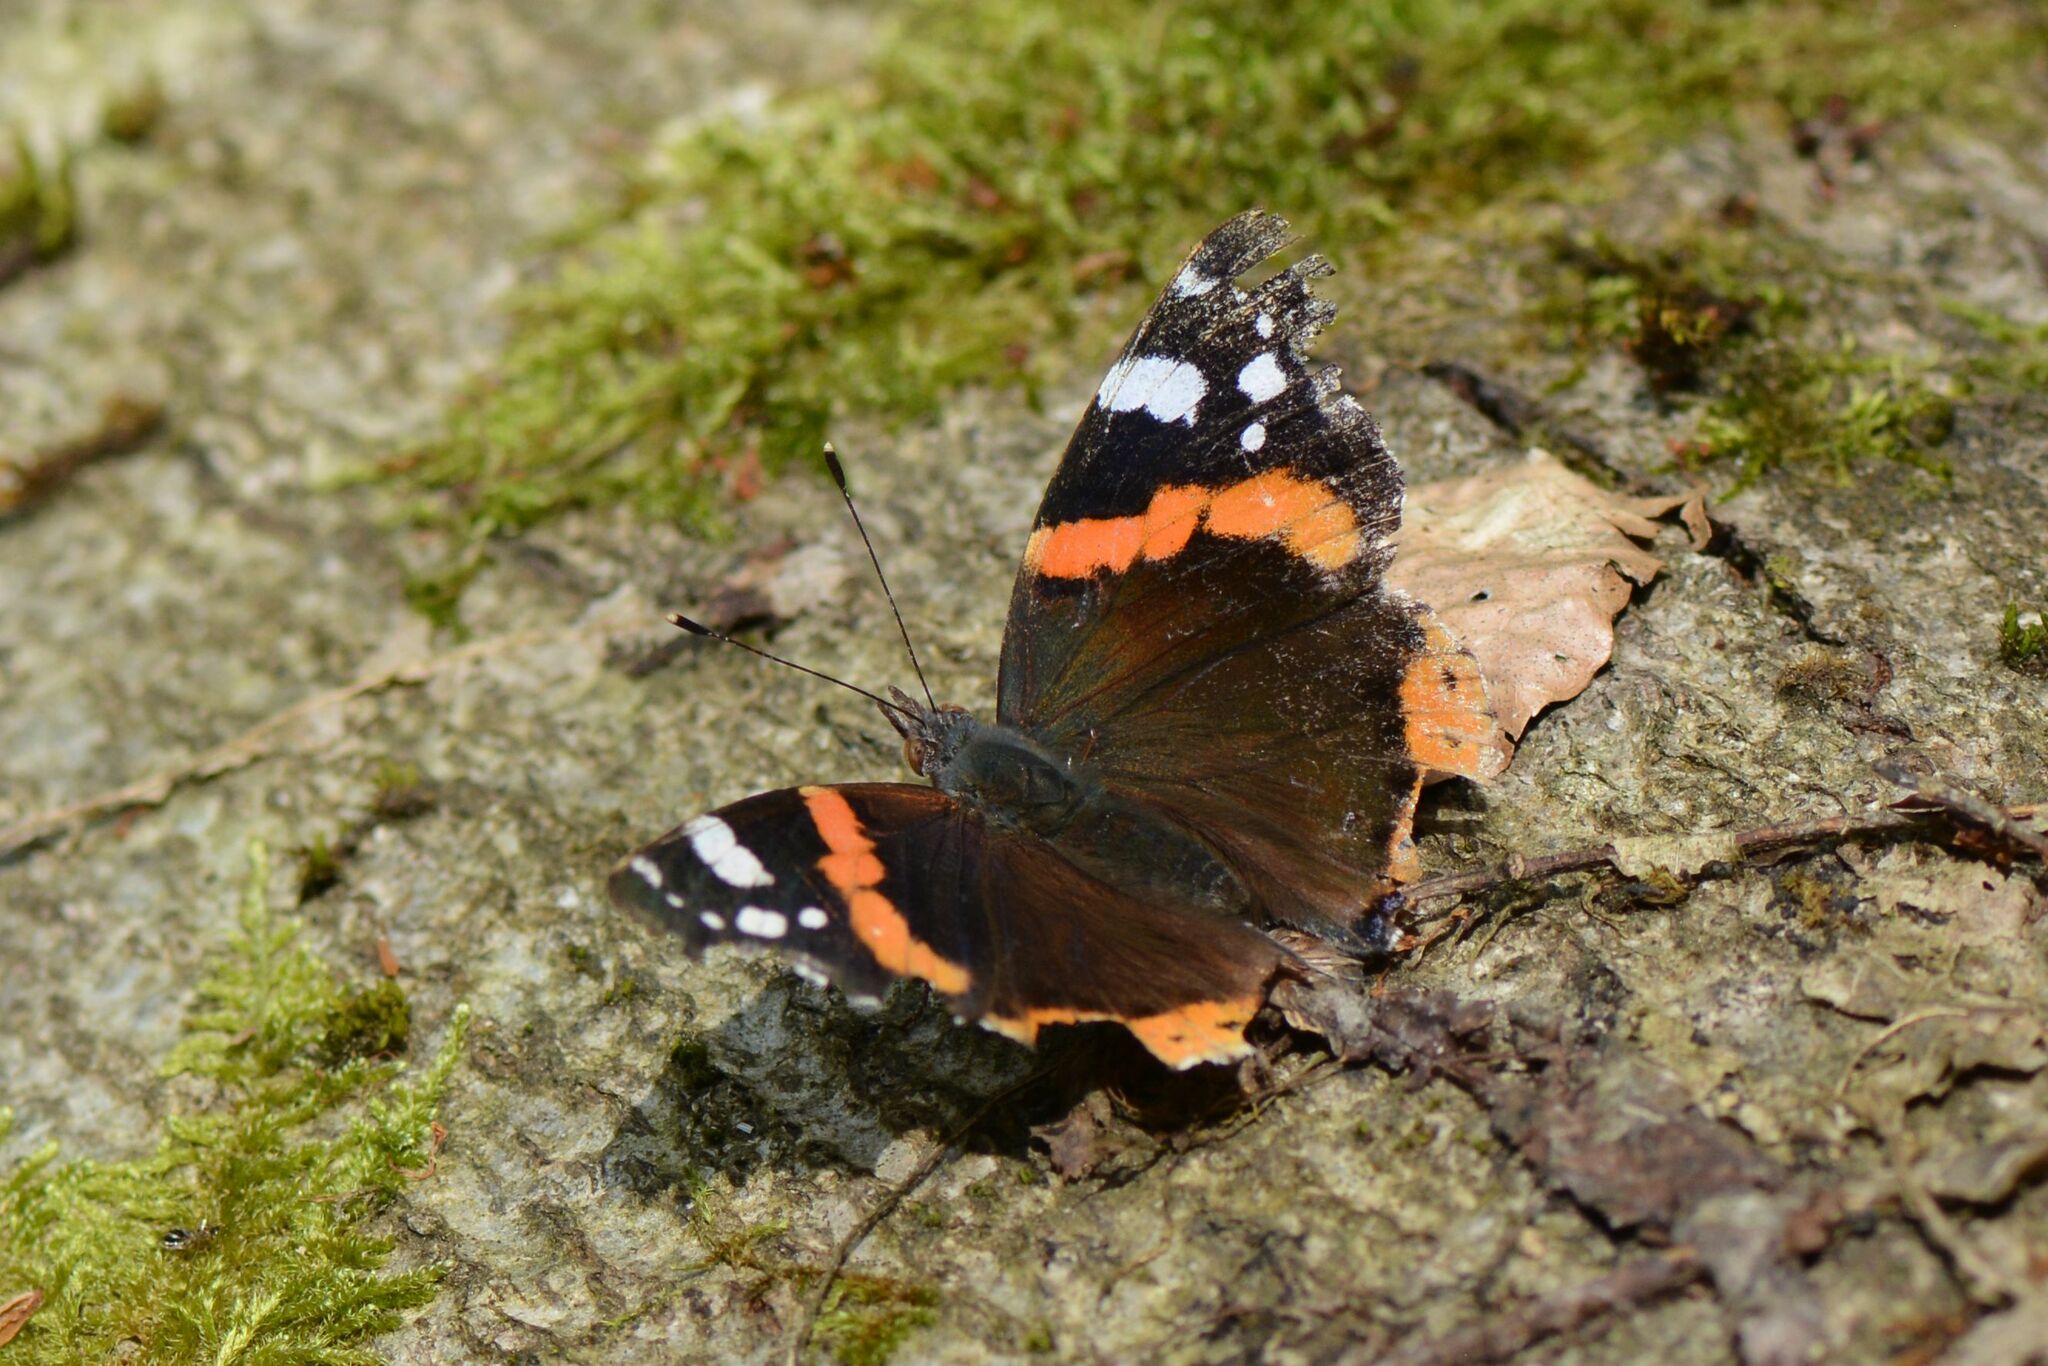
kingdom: Animalia
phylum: Arthropoda
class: Insecta
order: Lepidoptera
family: Nymphalidae
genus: Vanessa
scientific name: Vanessa atalanta
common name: Red admiral
